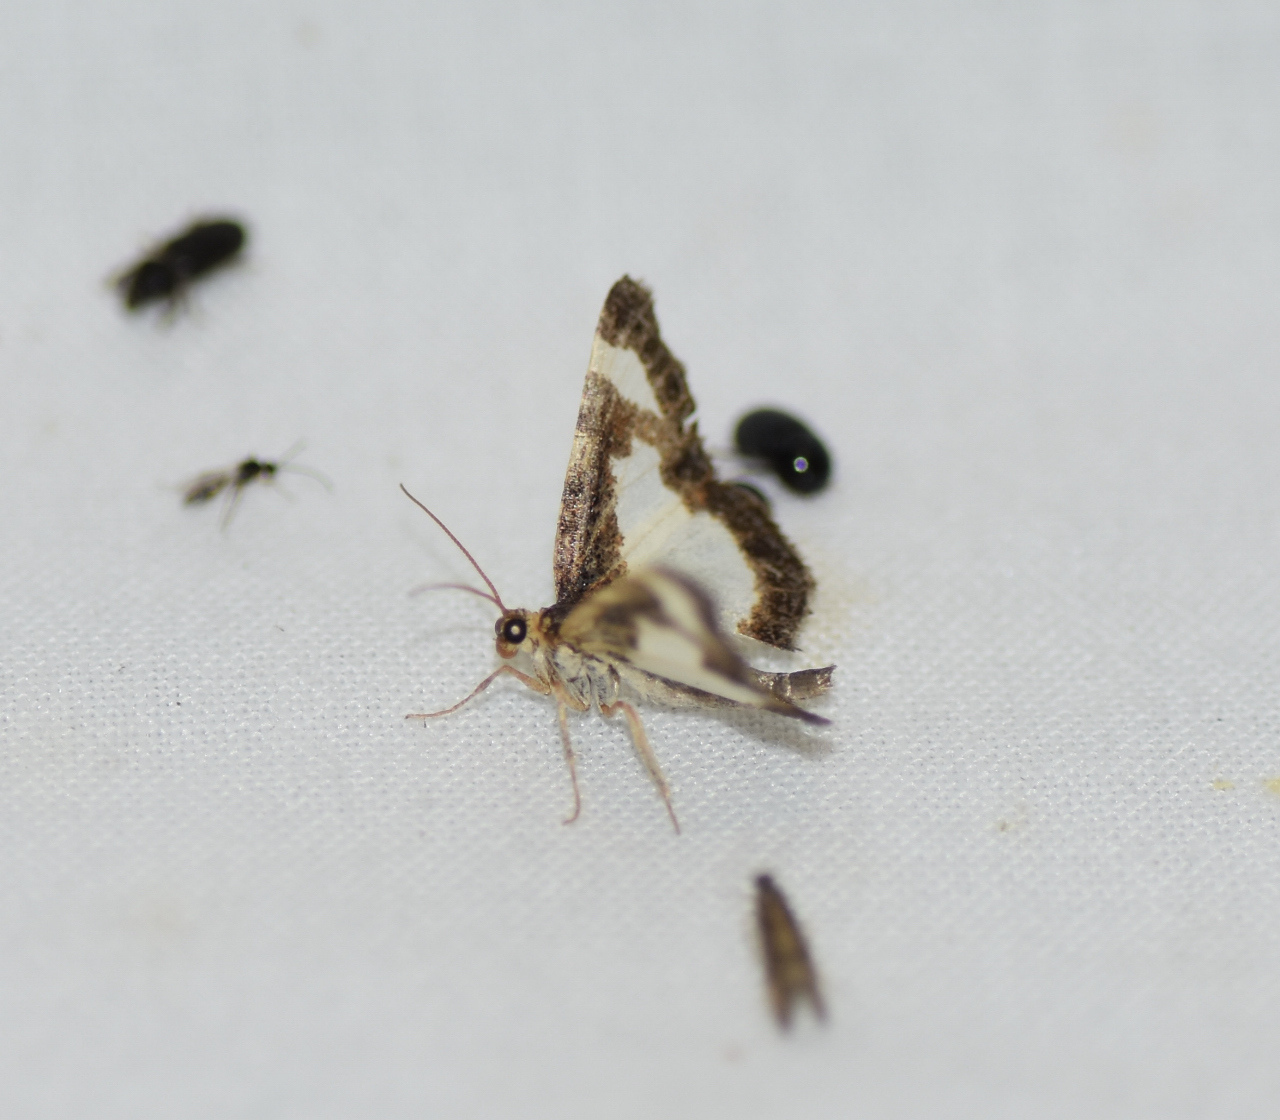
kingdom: Animalia
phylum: Arthropoda
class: Insecta
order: Lepidoptera
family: Geometridae
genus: Heliomata
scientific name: Heliomata cycladata
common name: Common spring moth
